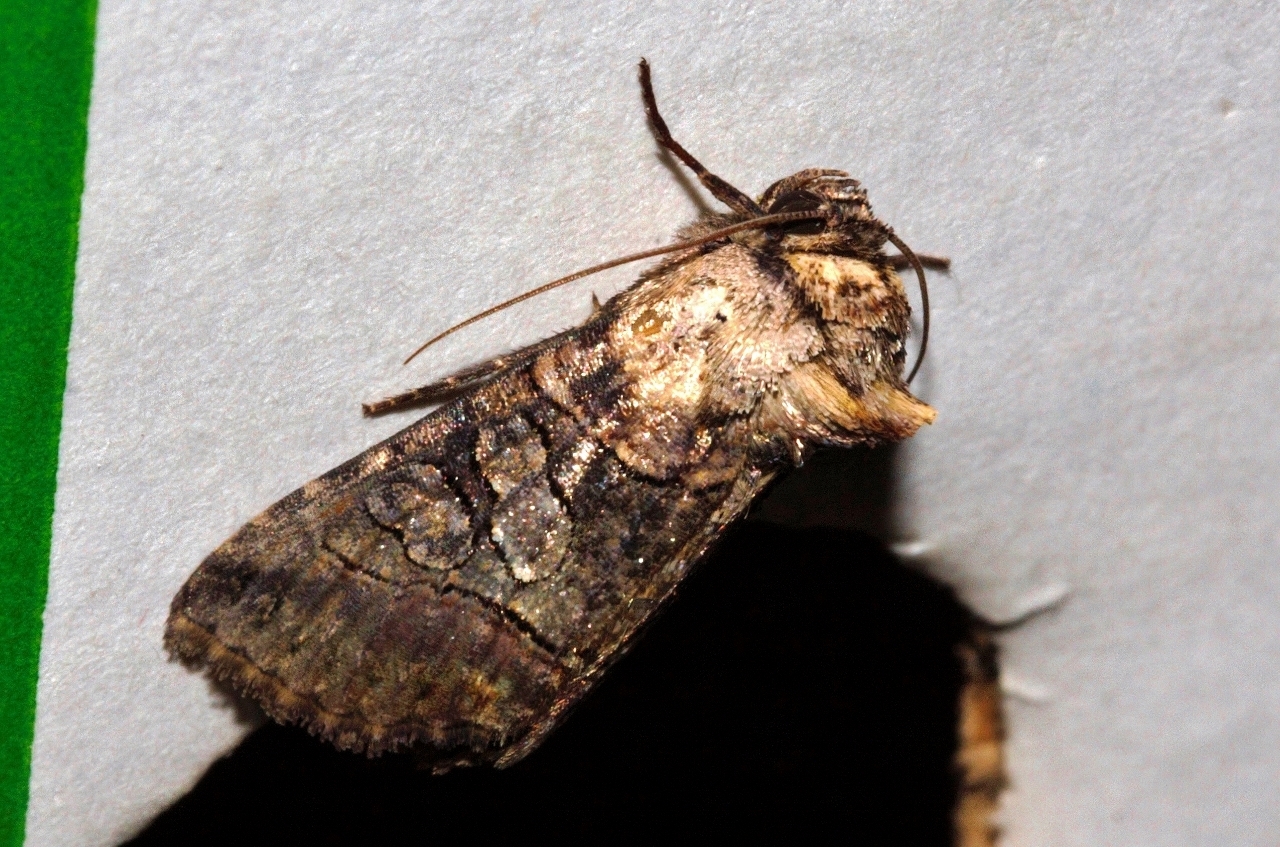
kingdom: Animalia
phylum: Arthropoda
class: Insecta
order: Lepidoptera
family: Noctuidae
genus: Abrostola
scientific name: Abrostola triopis
